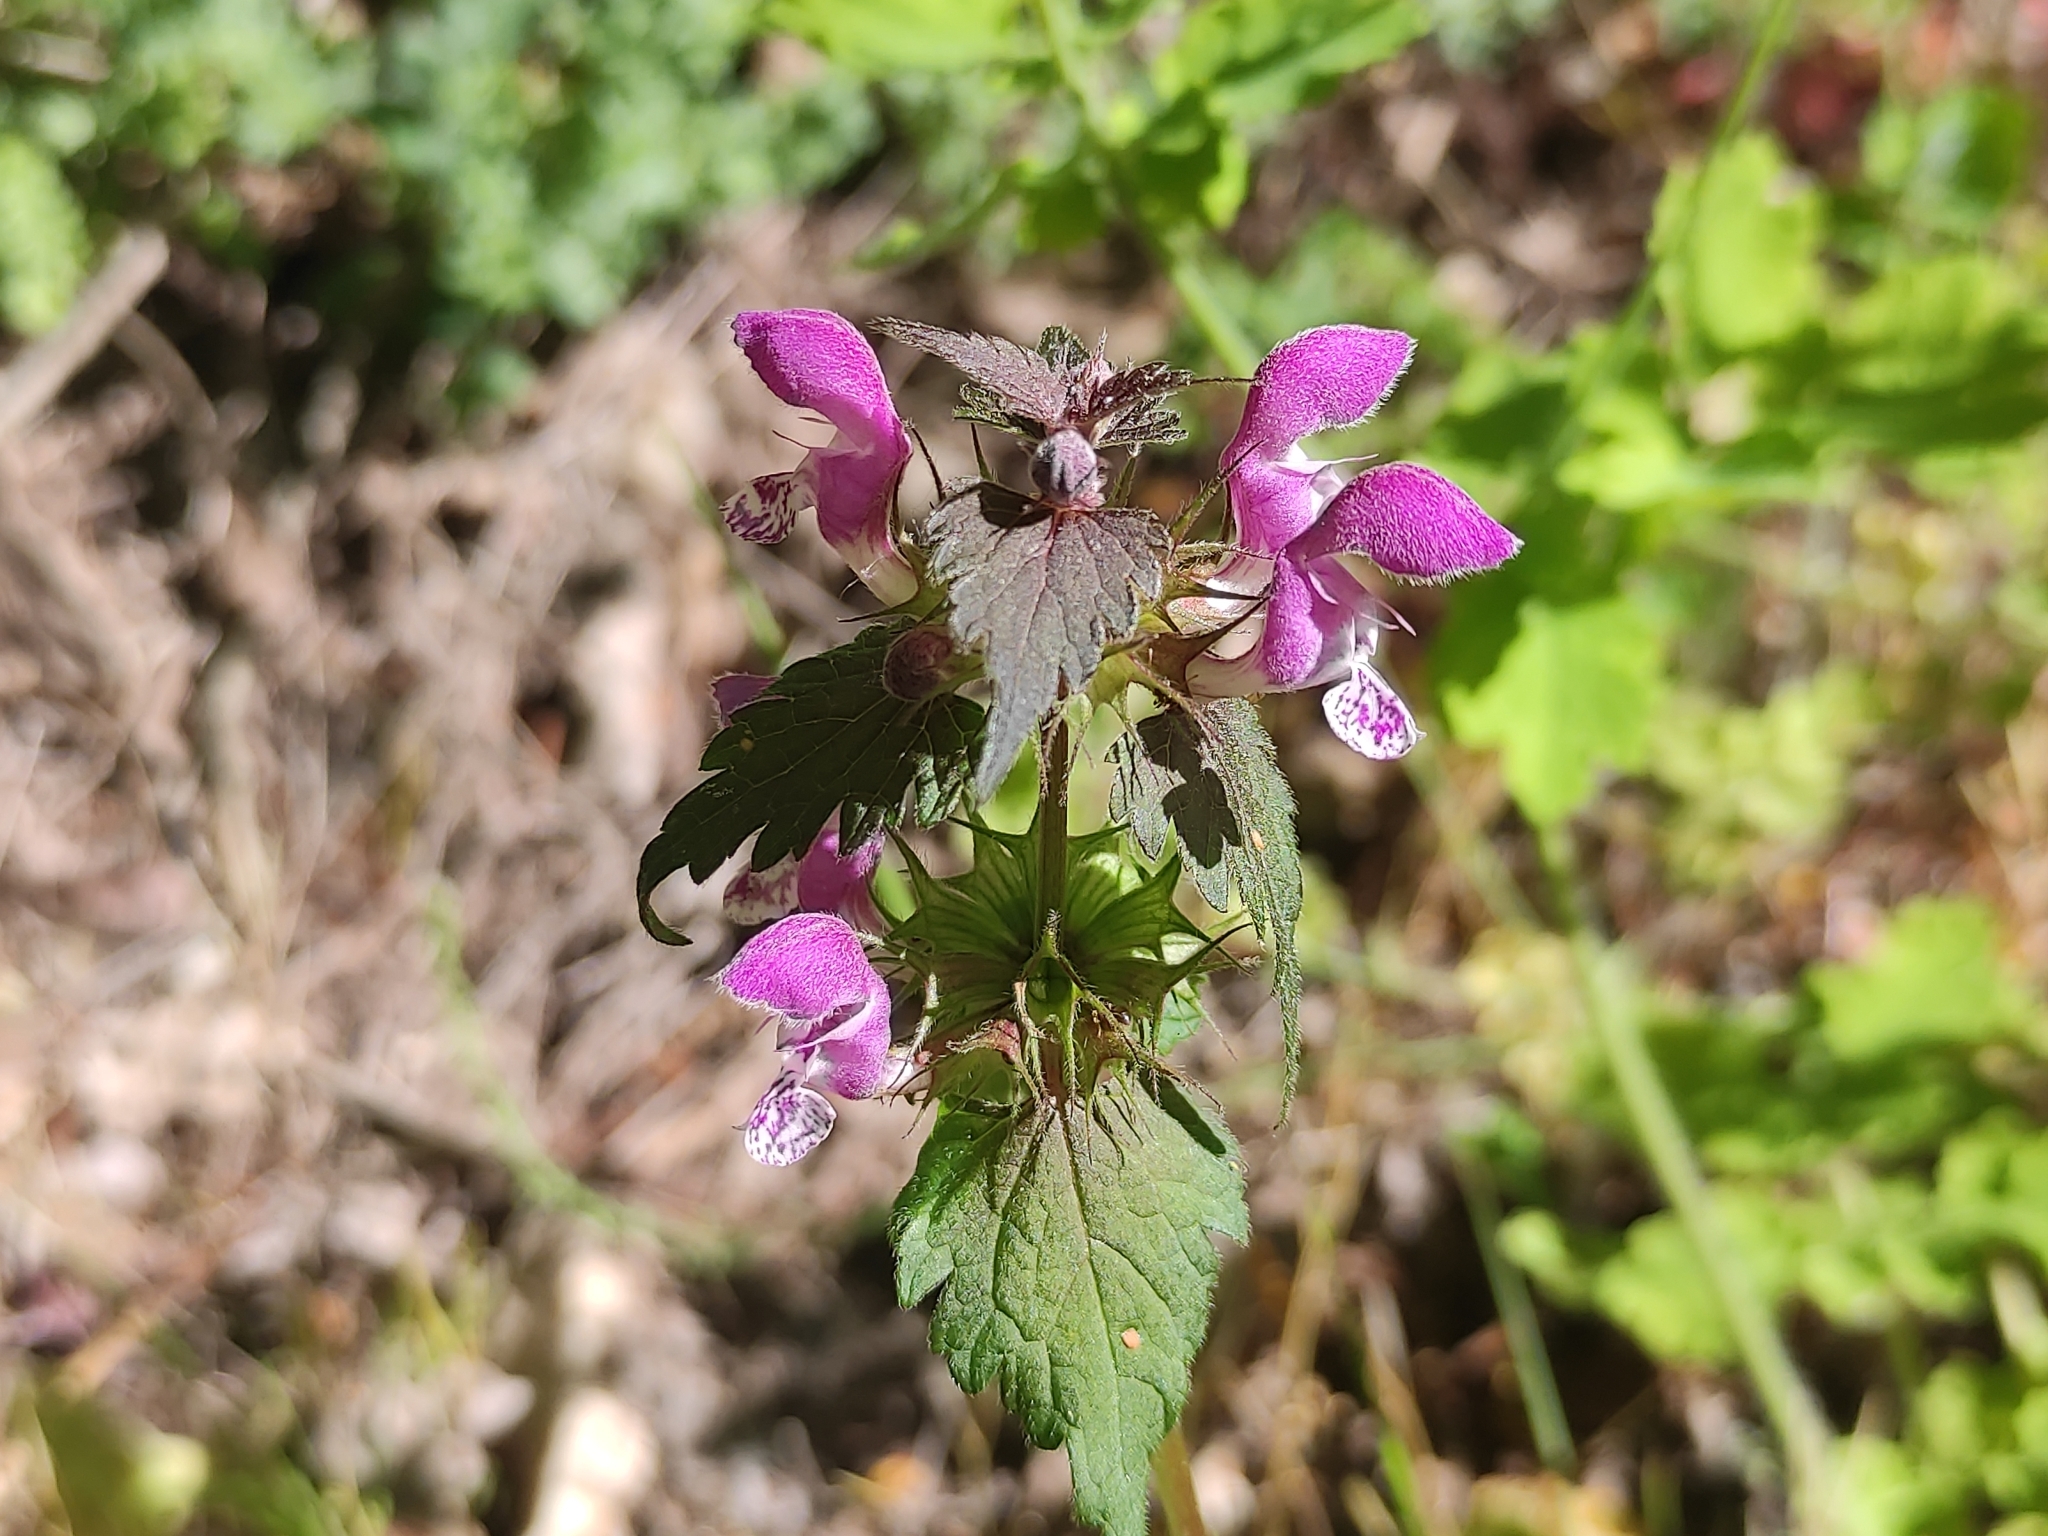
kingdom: Plantae
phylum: Tracheophyta
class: Magnoliopsida
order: Lamiales
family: Lamiaceae
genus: Lamium
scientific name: Lamium maculatum
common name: Spotted dead-nettle
